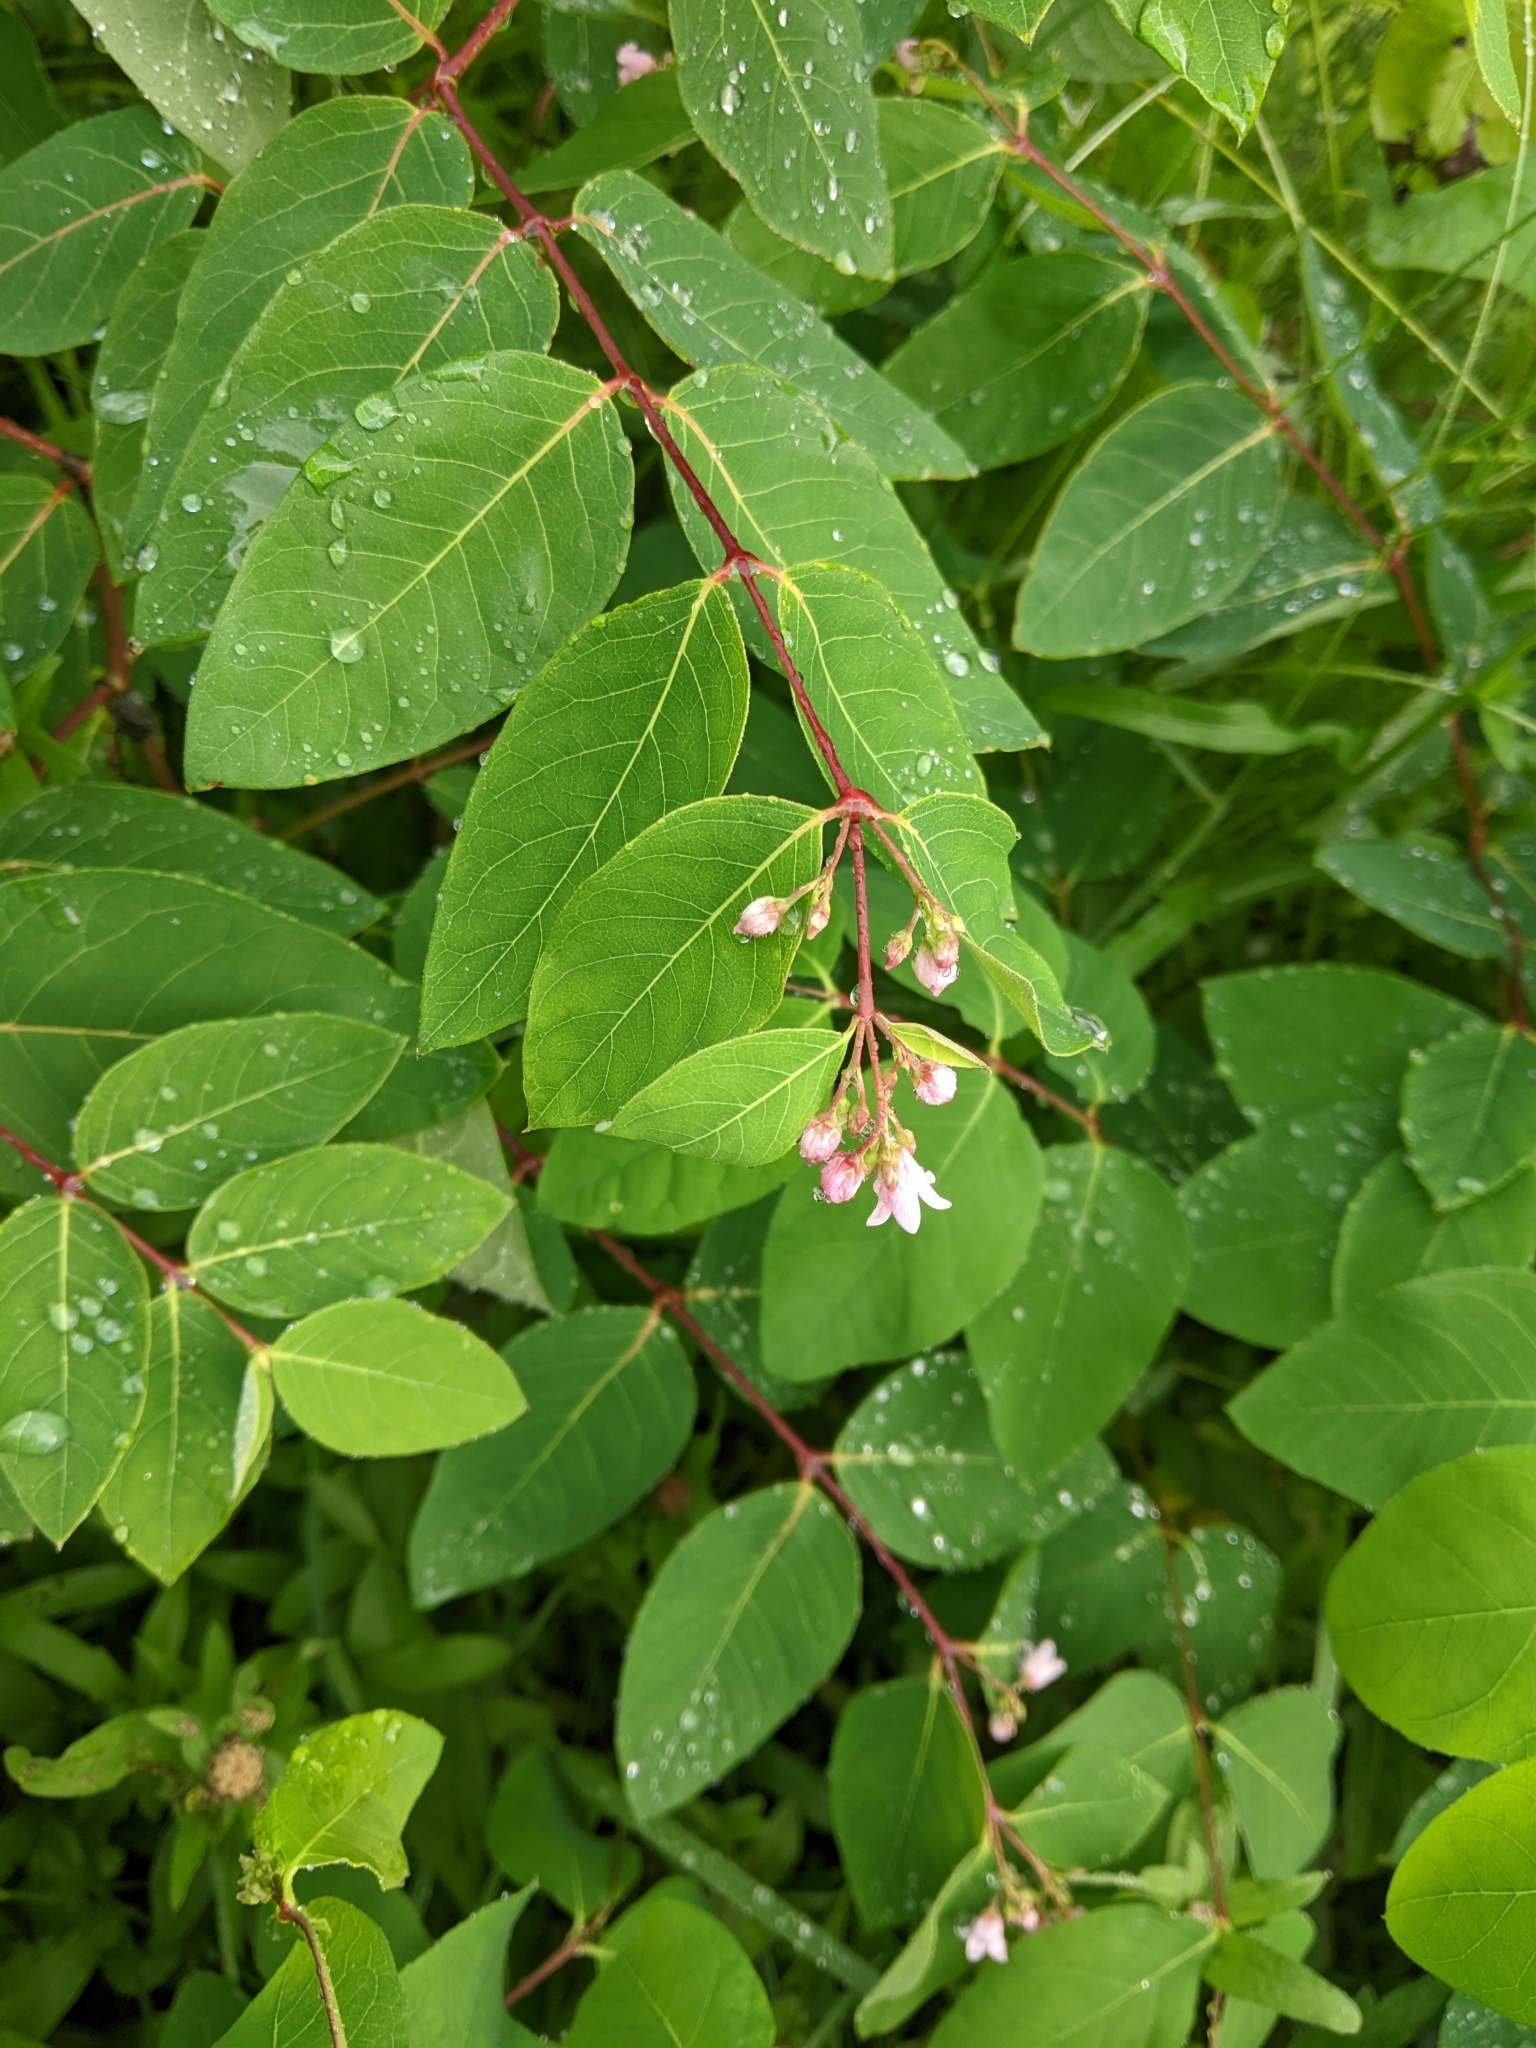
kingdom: Plantae
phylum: Tracheophyta
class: Magnoliopsida
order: Gentianales
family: Apocynaceae
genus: Apocynum
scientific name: Apocynum androsaemifolium
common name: Spreading dogbane
